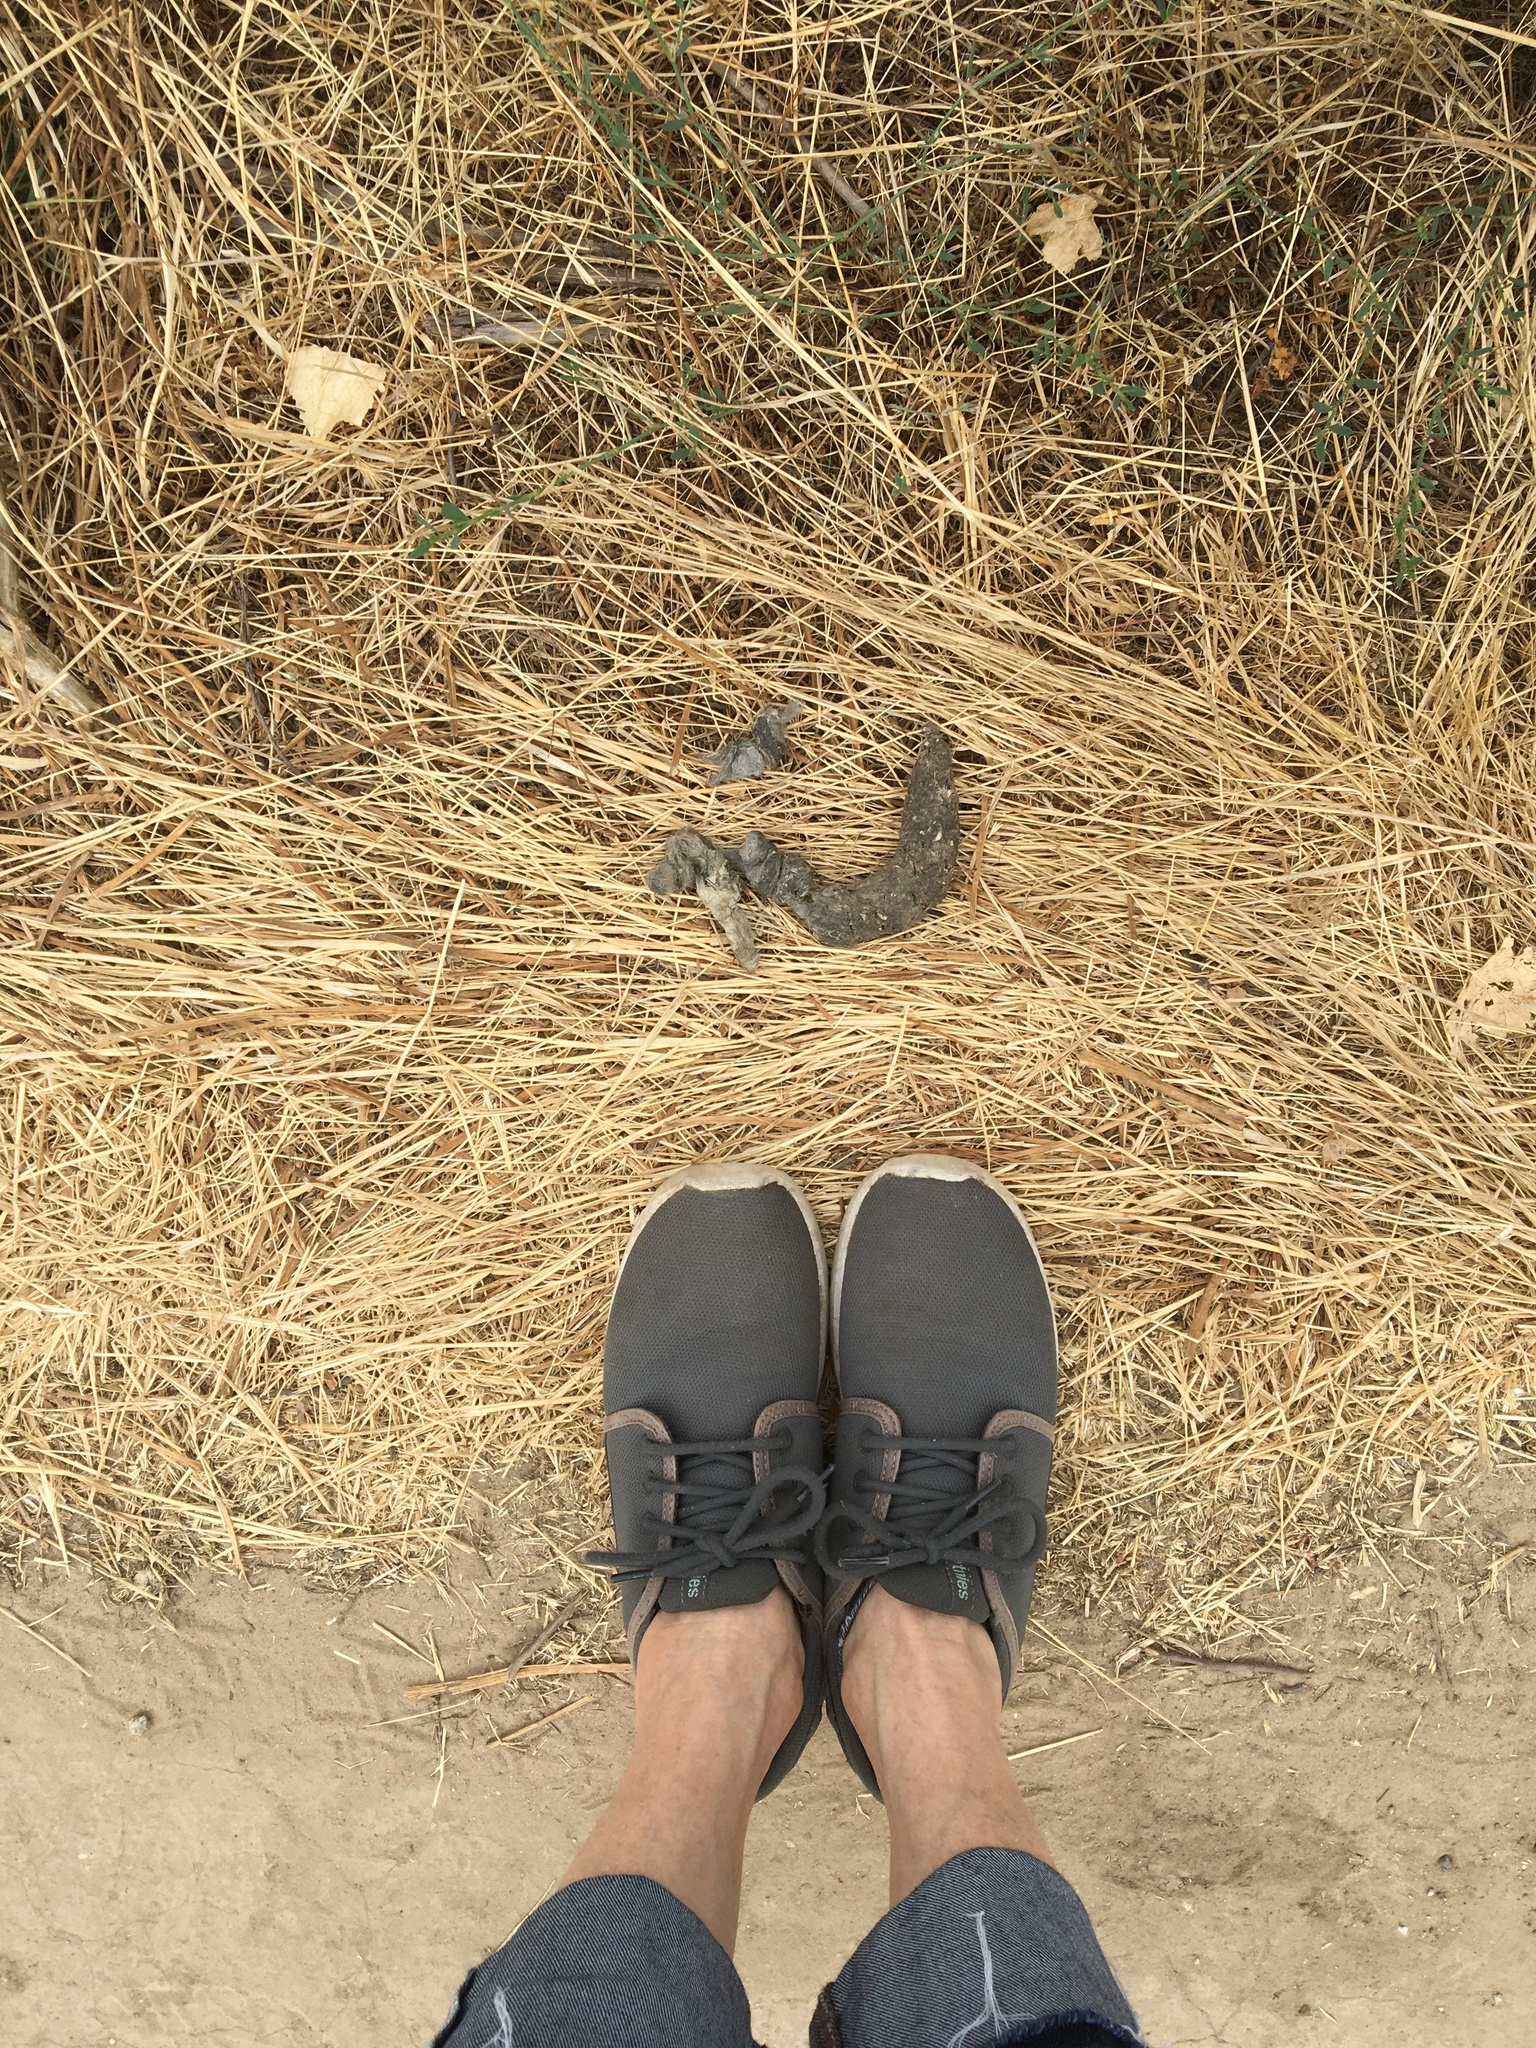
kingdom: Animalia
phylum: Chordata
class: Mammalia
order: Carnivora
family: Canidae
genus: Canis
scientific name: Canis latrans
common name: Coyote
